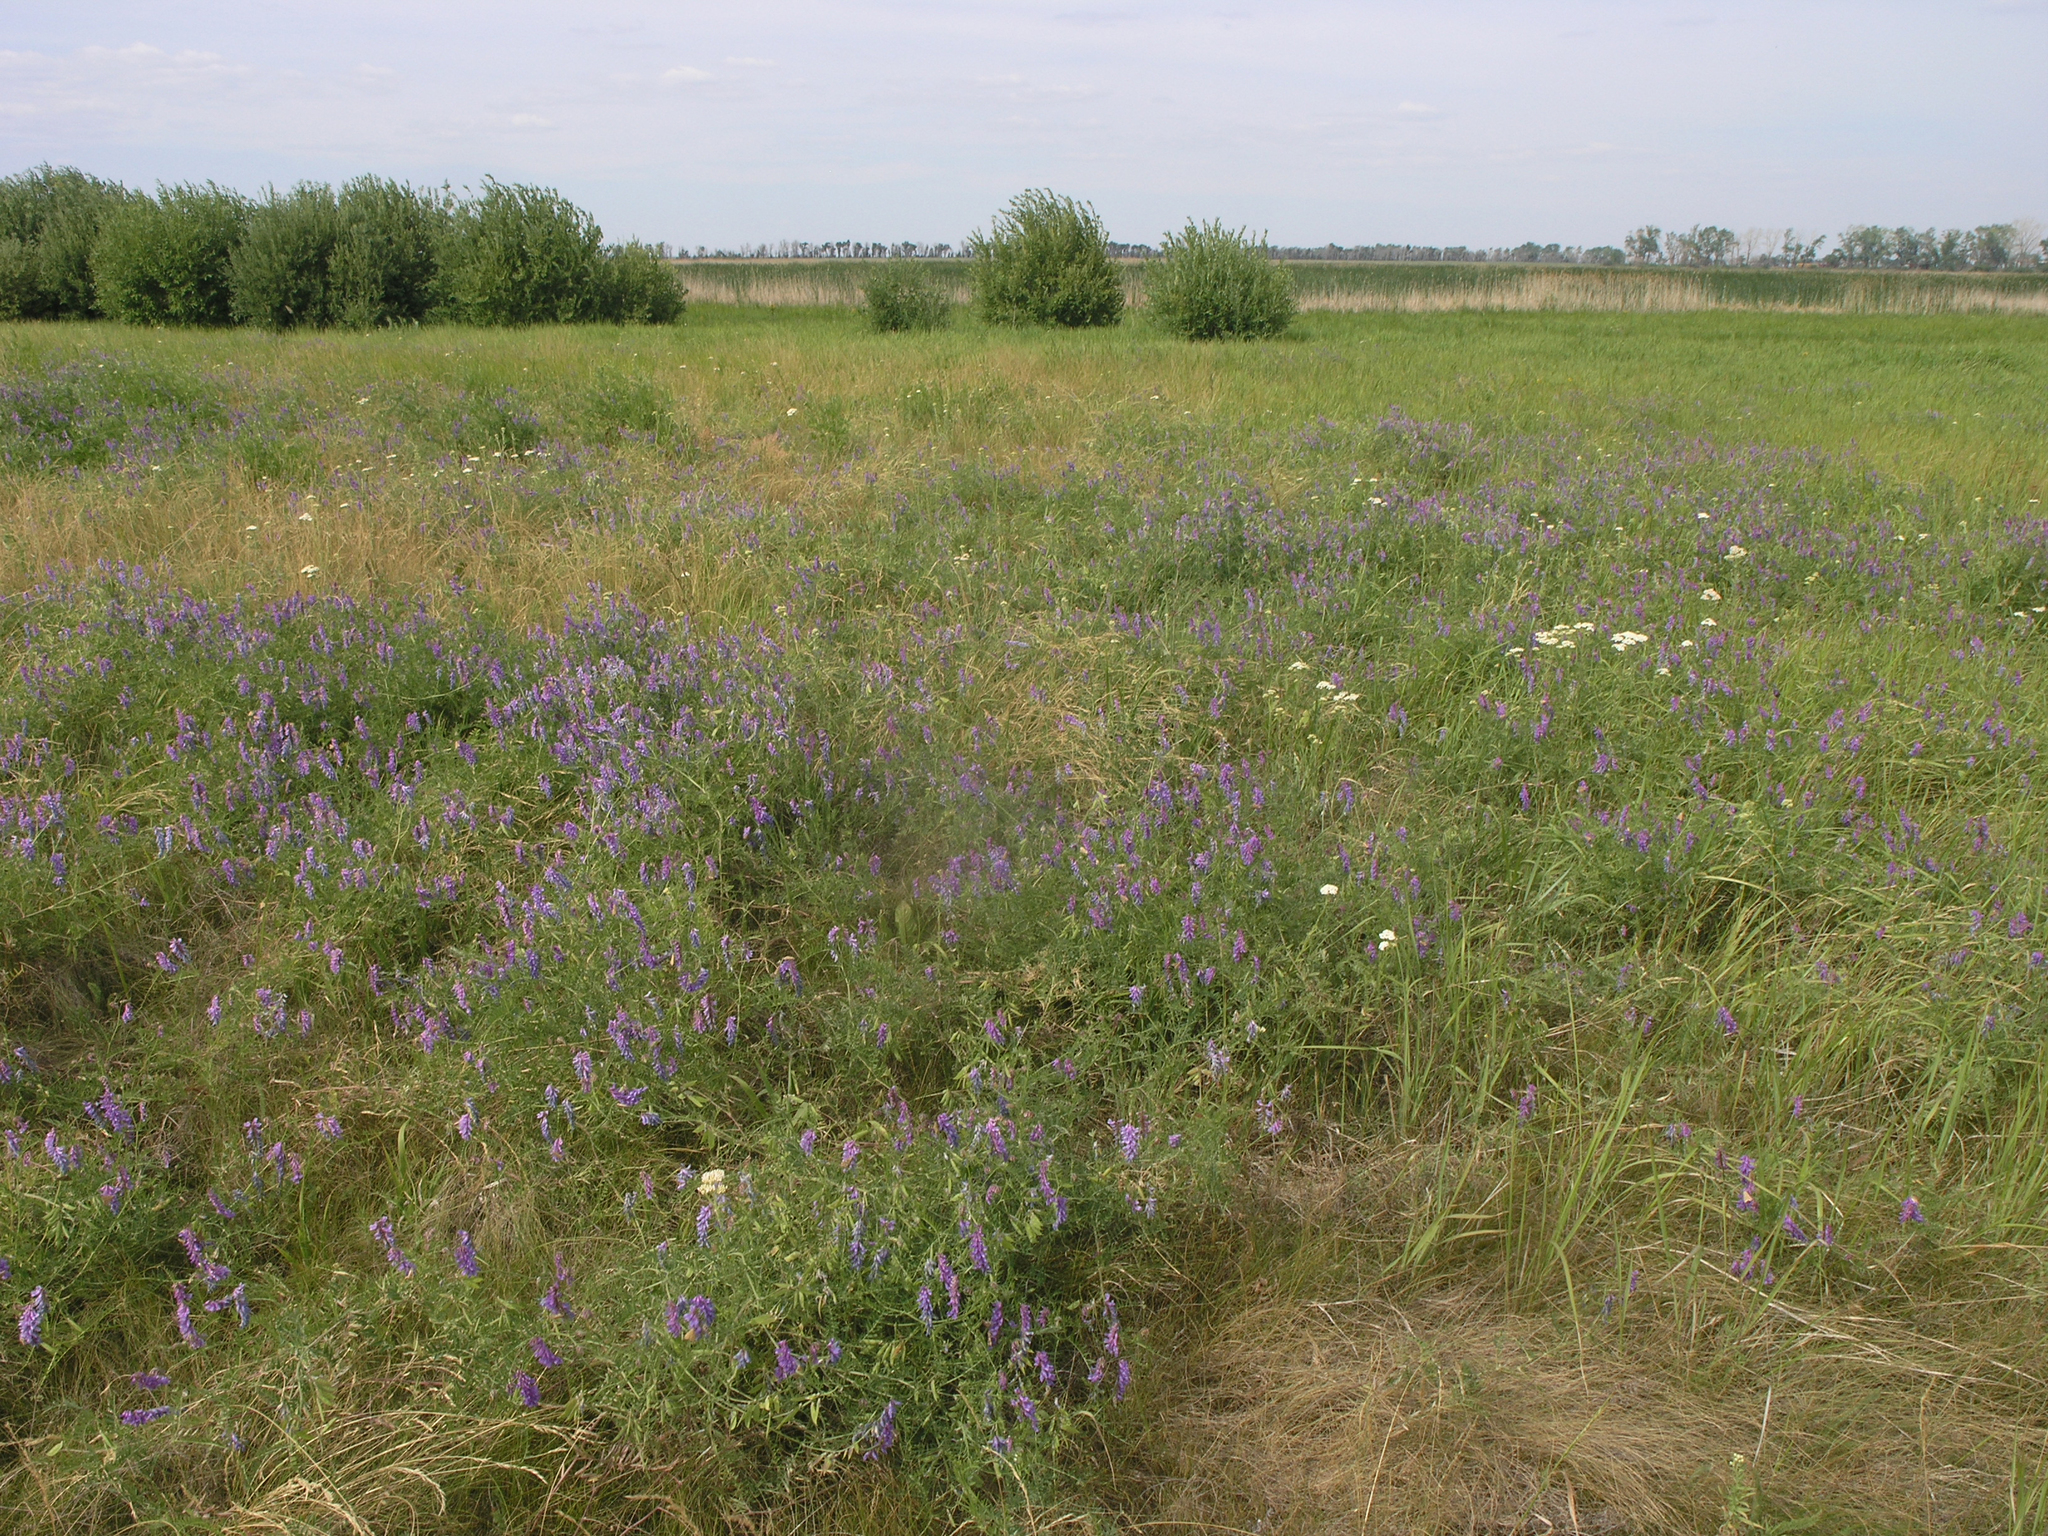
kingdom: Plantae
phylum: Tracheophyta
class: Magnoliopsida
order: Fabales
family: Fabaceae
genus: Vicia
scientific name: Vicia cracca
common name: Bird vetch
